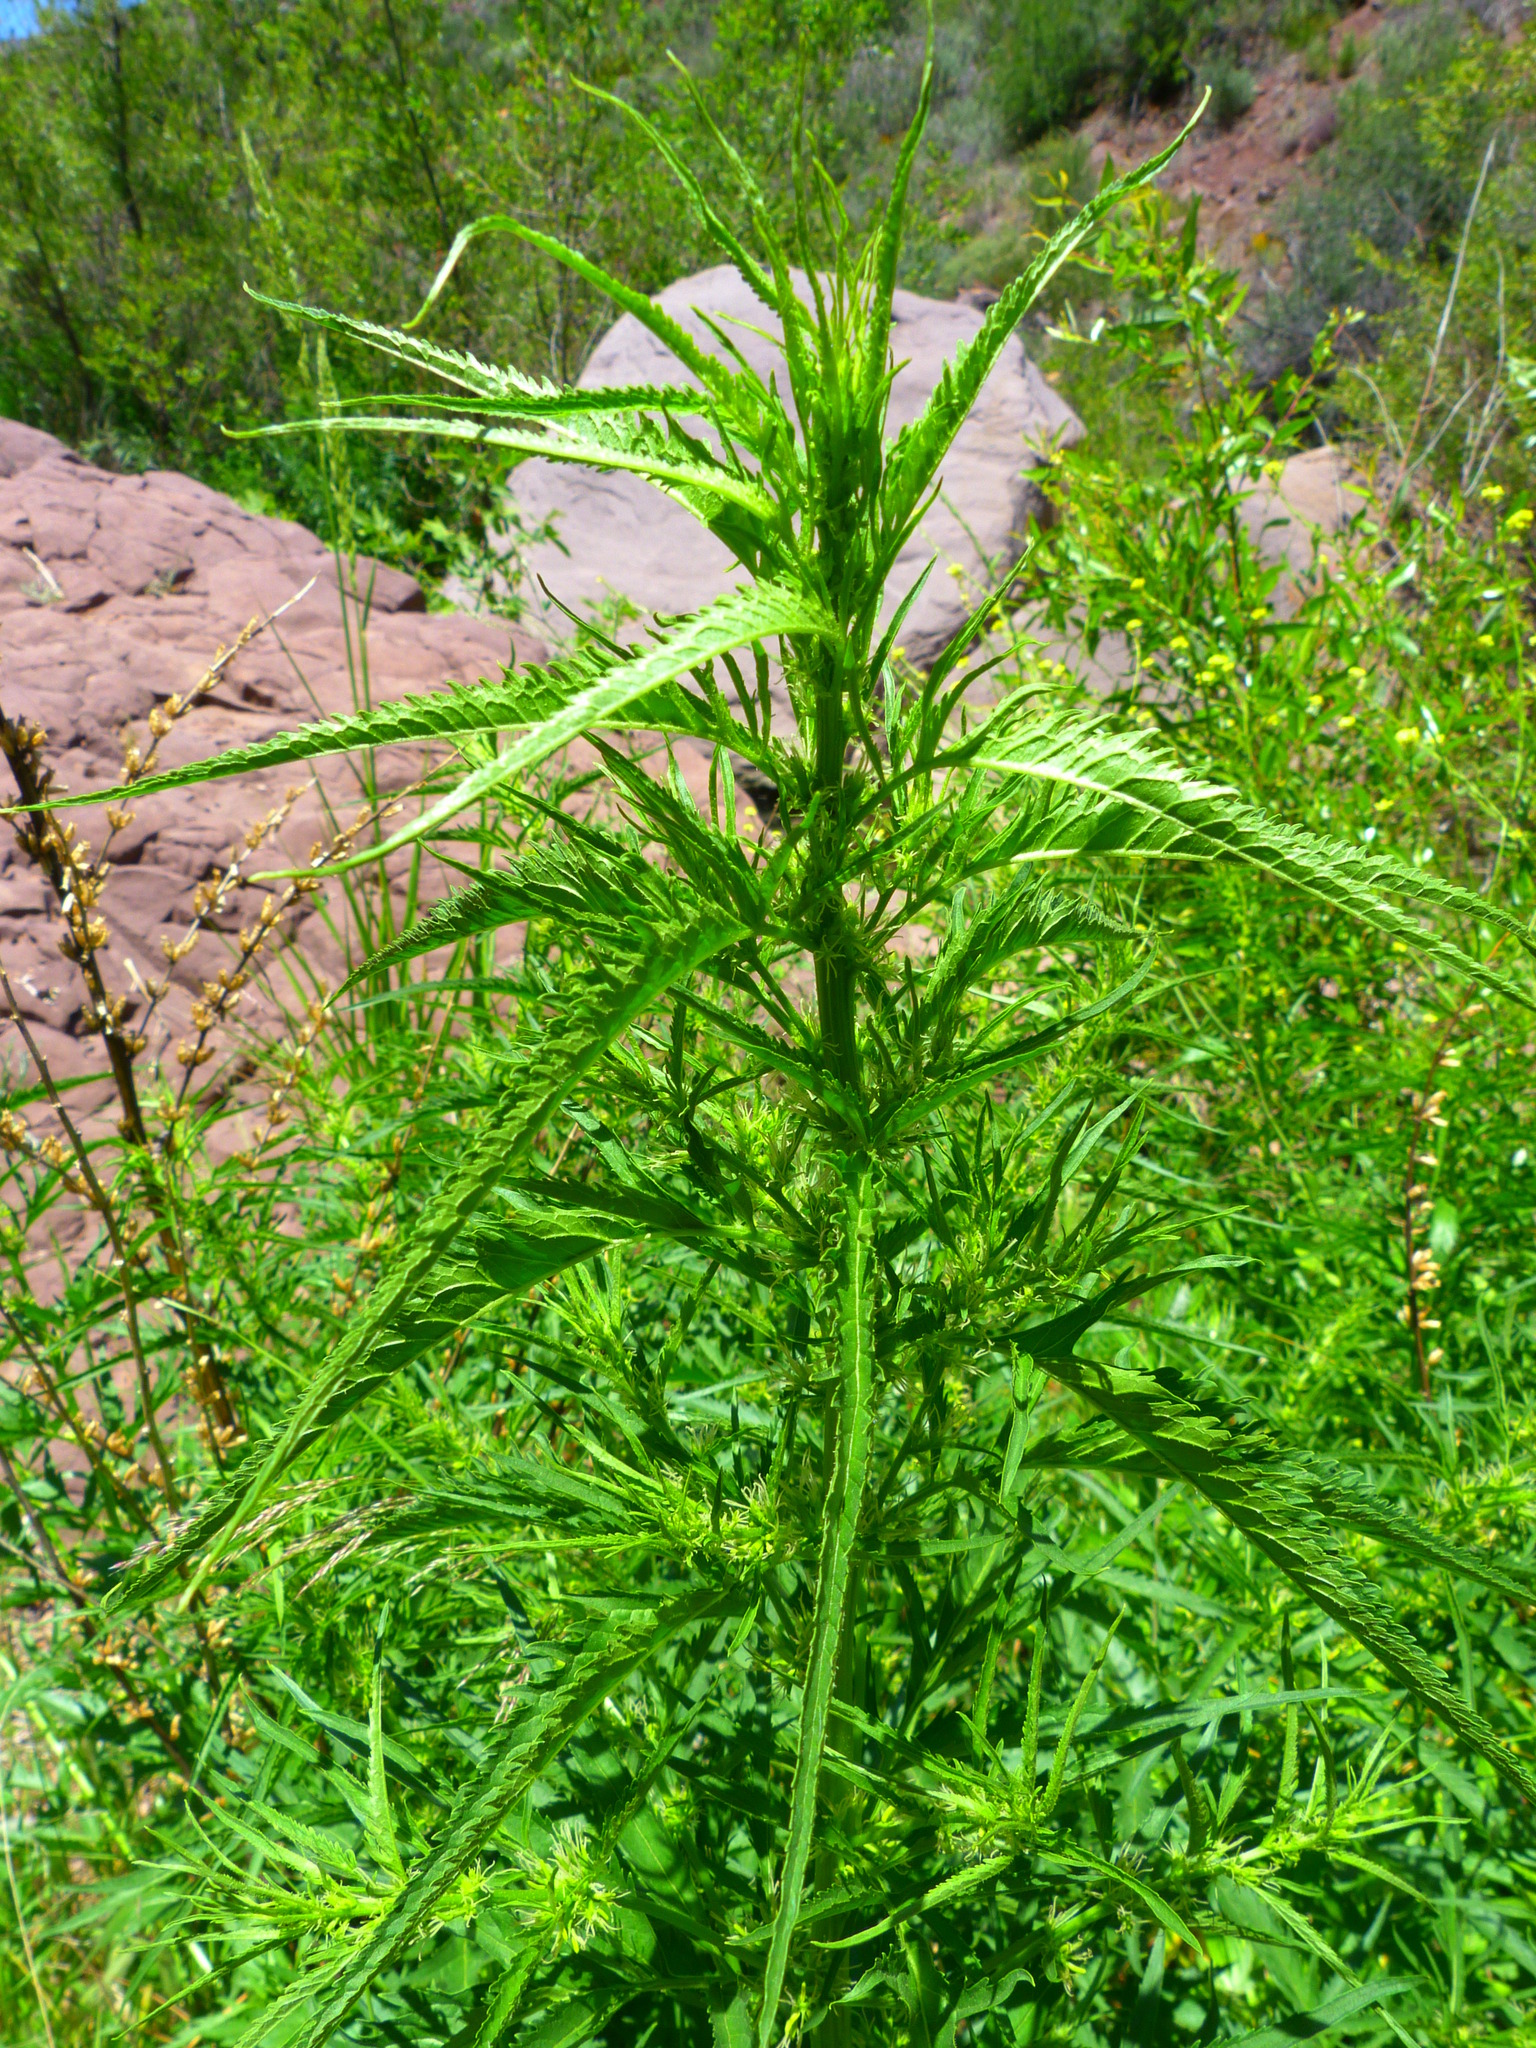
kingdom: Plantae
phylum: Tracheophyta
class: Magnoliopsida
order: Cucurbitales
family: Datiscaceae
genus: Datisca
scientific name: Datisca glomerata
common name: Durango-root
